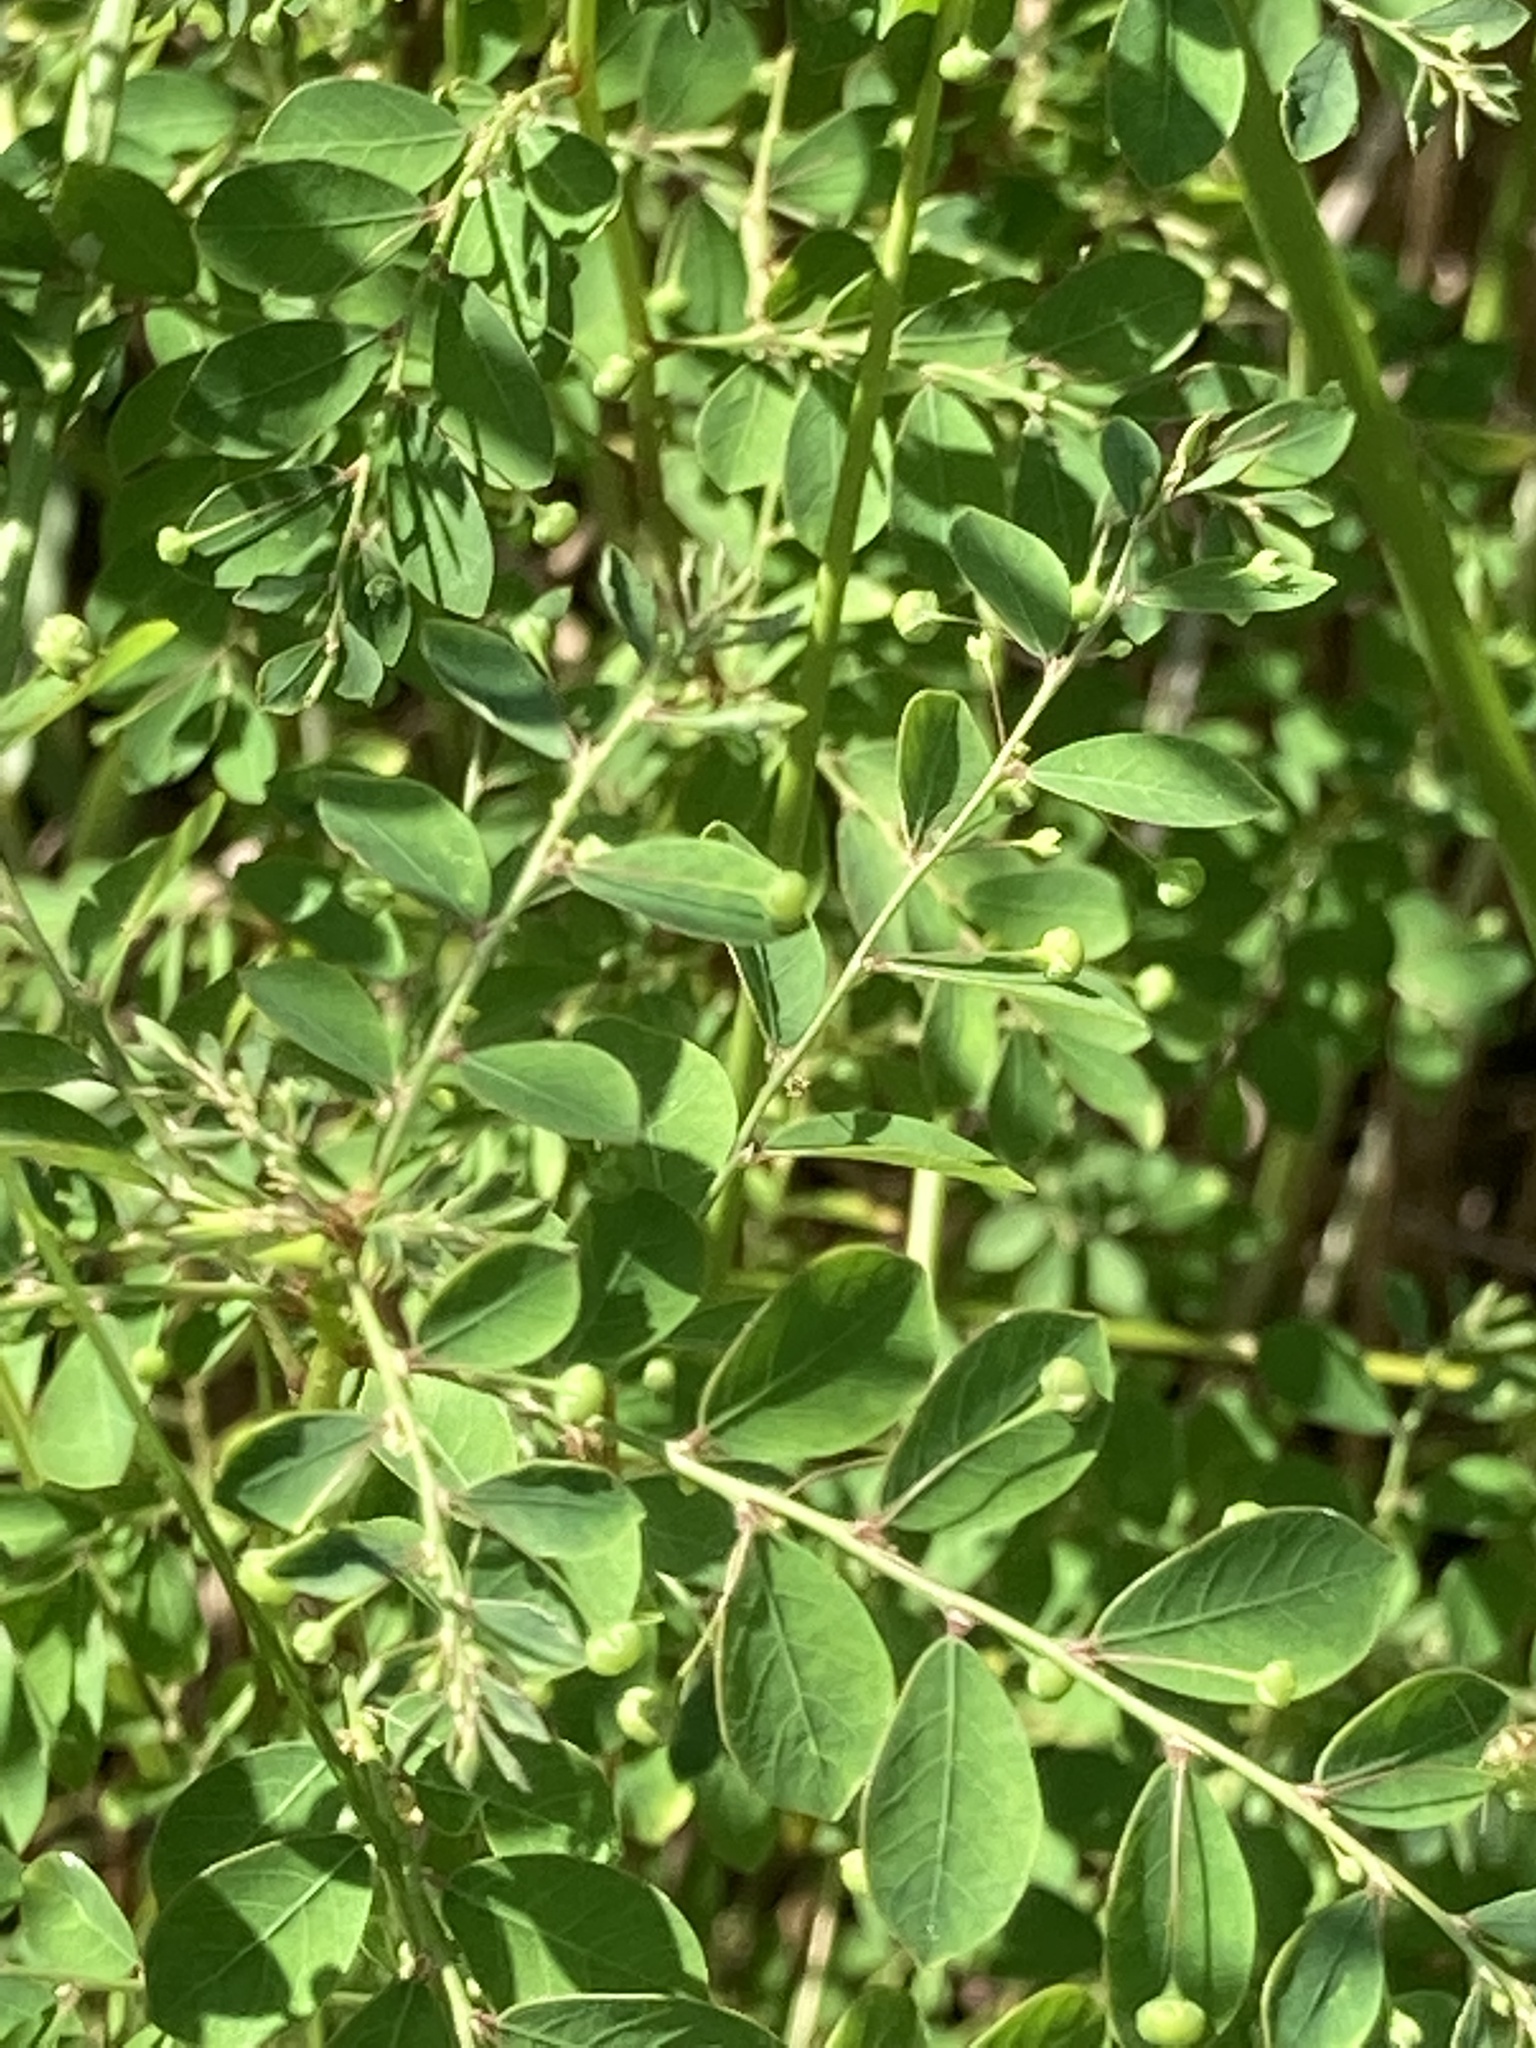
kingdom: Plantae
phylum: Tracheophyta
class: Magnoliopsida
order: Malpighiales
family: Phyllanthaceae
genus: Phyllanthus
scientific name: Phyllanthus tenellus
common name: Mascarene island leaf-flower
